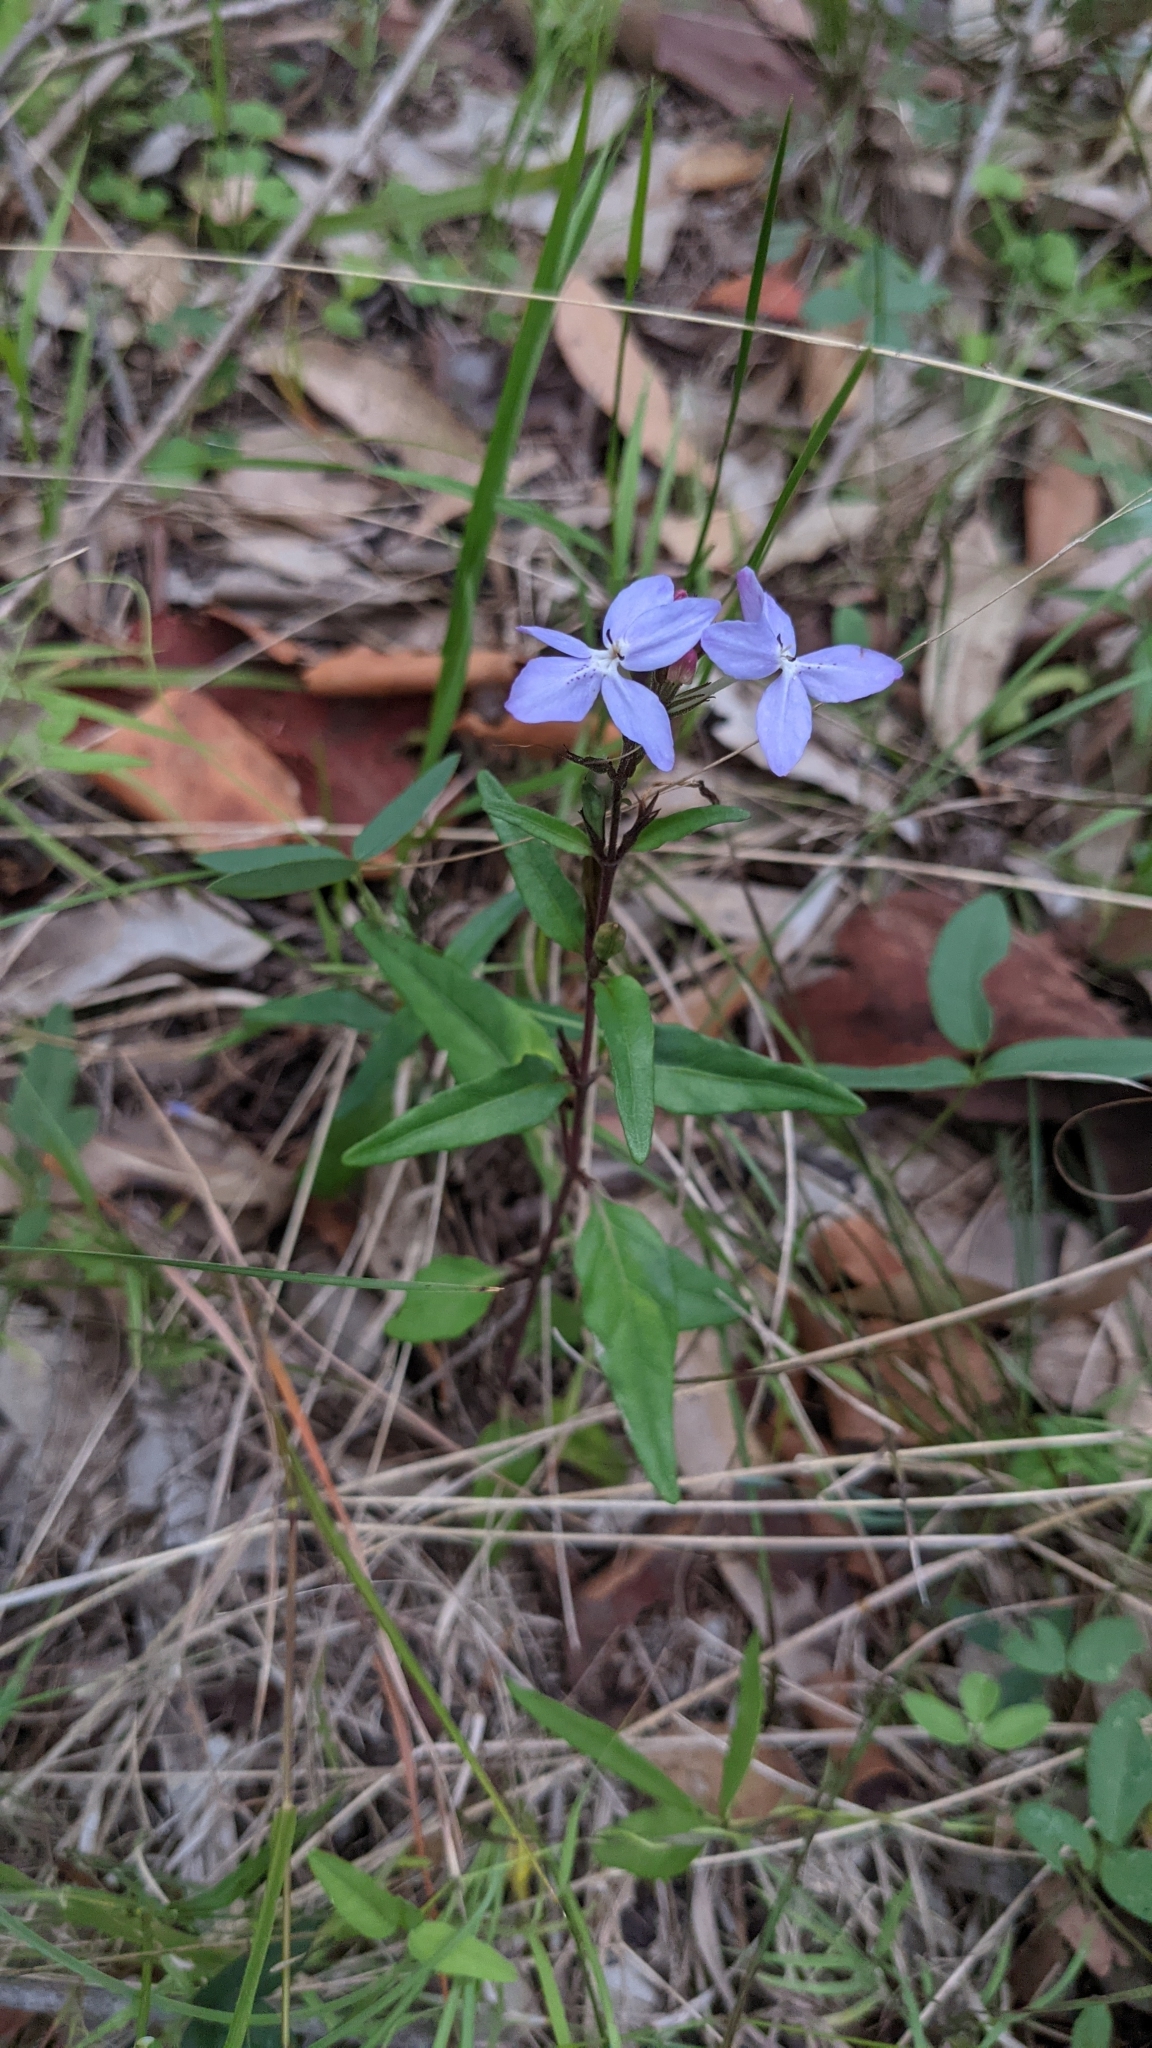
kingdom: Plantae
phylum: Tracheophyta
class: Magnoliopsida
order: Lamiales
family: Acanthaceae
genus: Pseuderanthemum
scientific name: Pseuderanthemum variabile
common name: Night and afternoon
